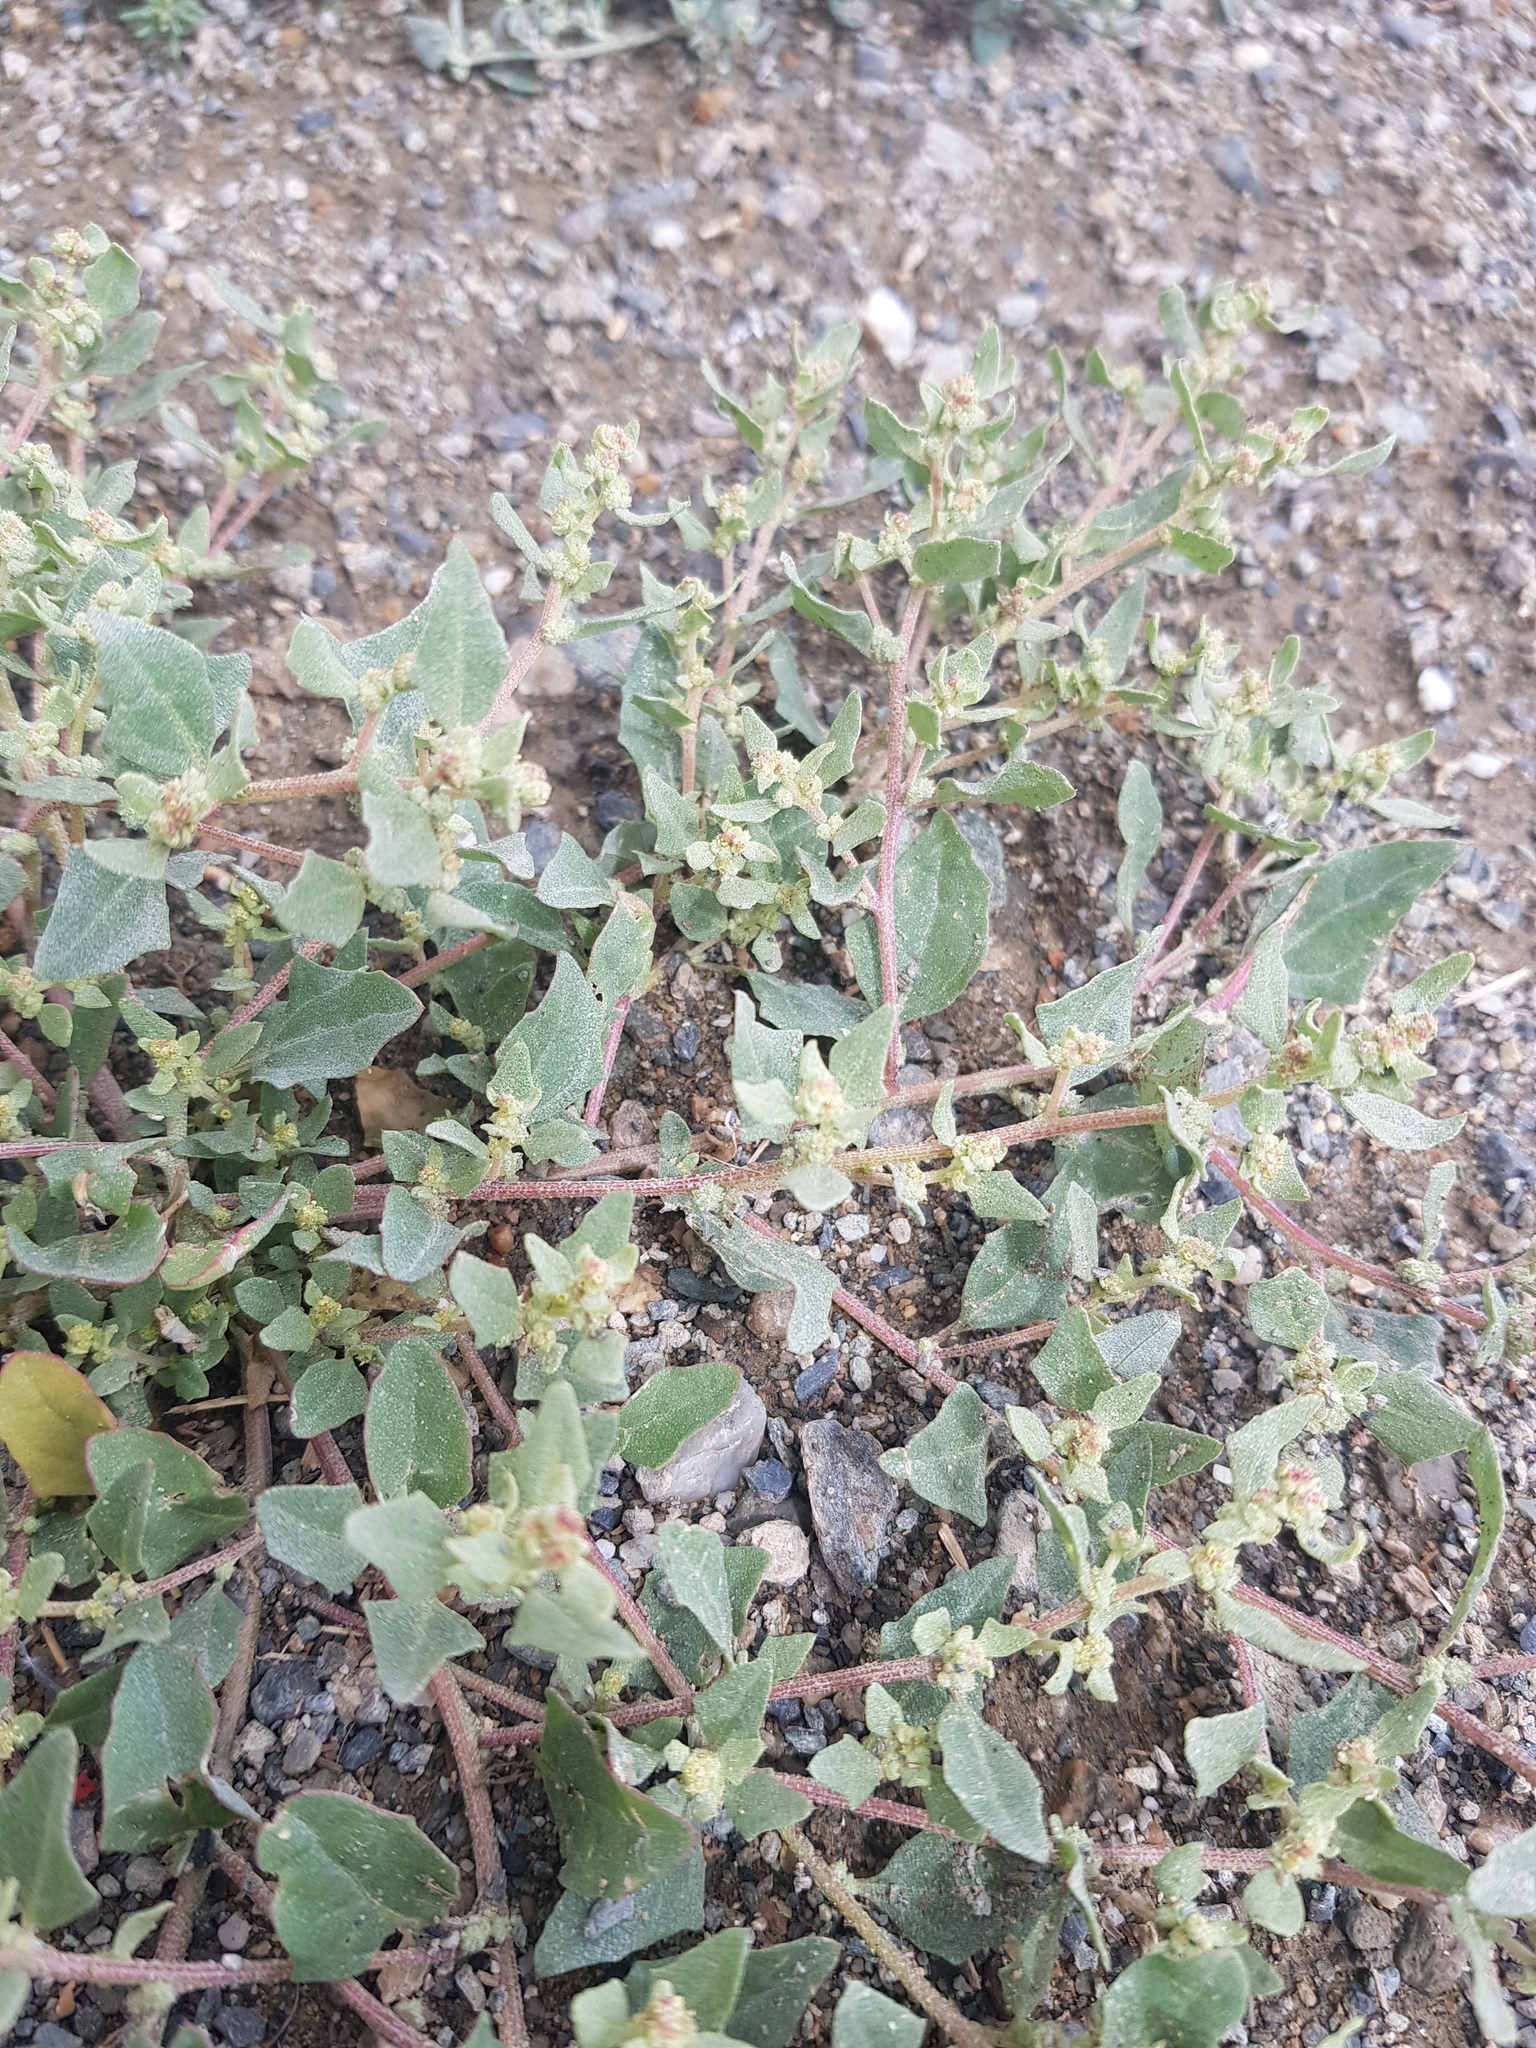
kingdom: Plantae
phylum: Tracheophyta
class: Magnoliopsida
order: Caryophyllales
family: Amaranthaceae
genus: Atriplex
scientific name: Atriplex sibirica
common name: Siberian saltbush
